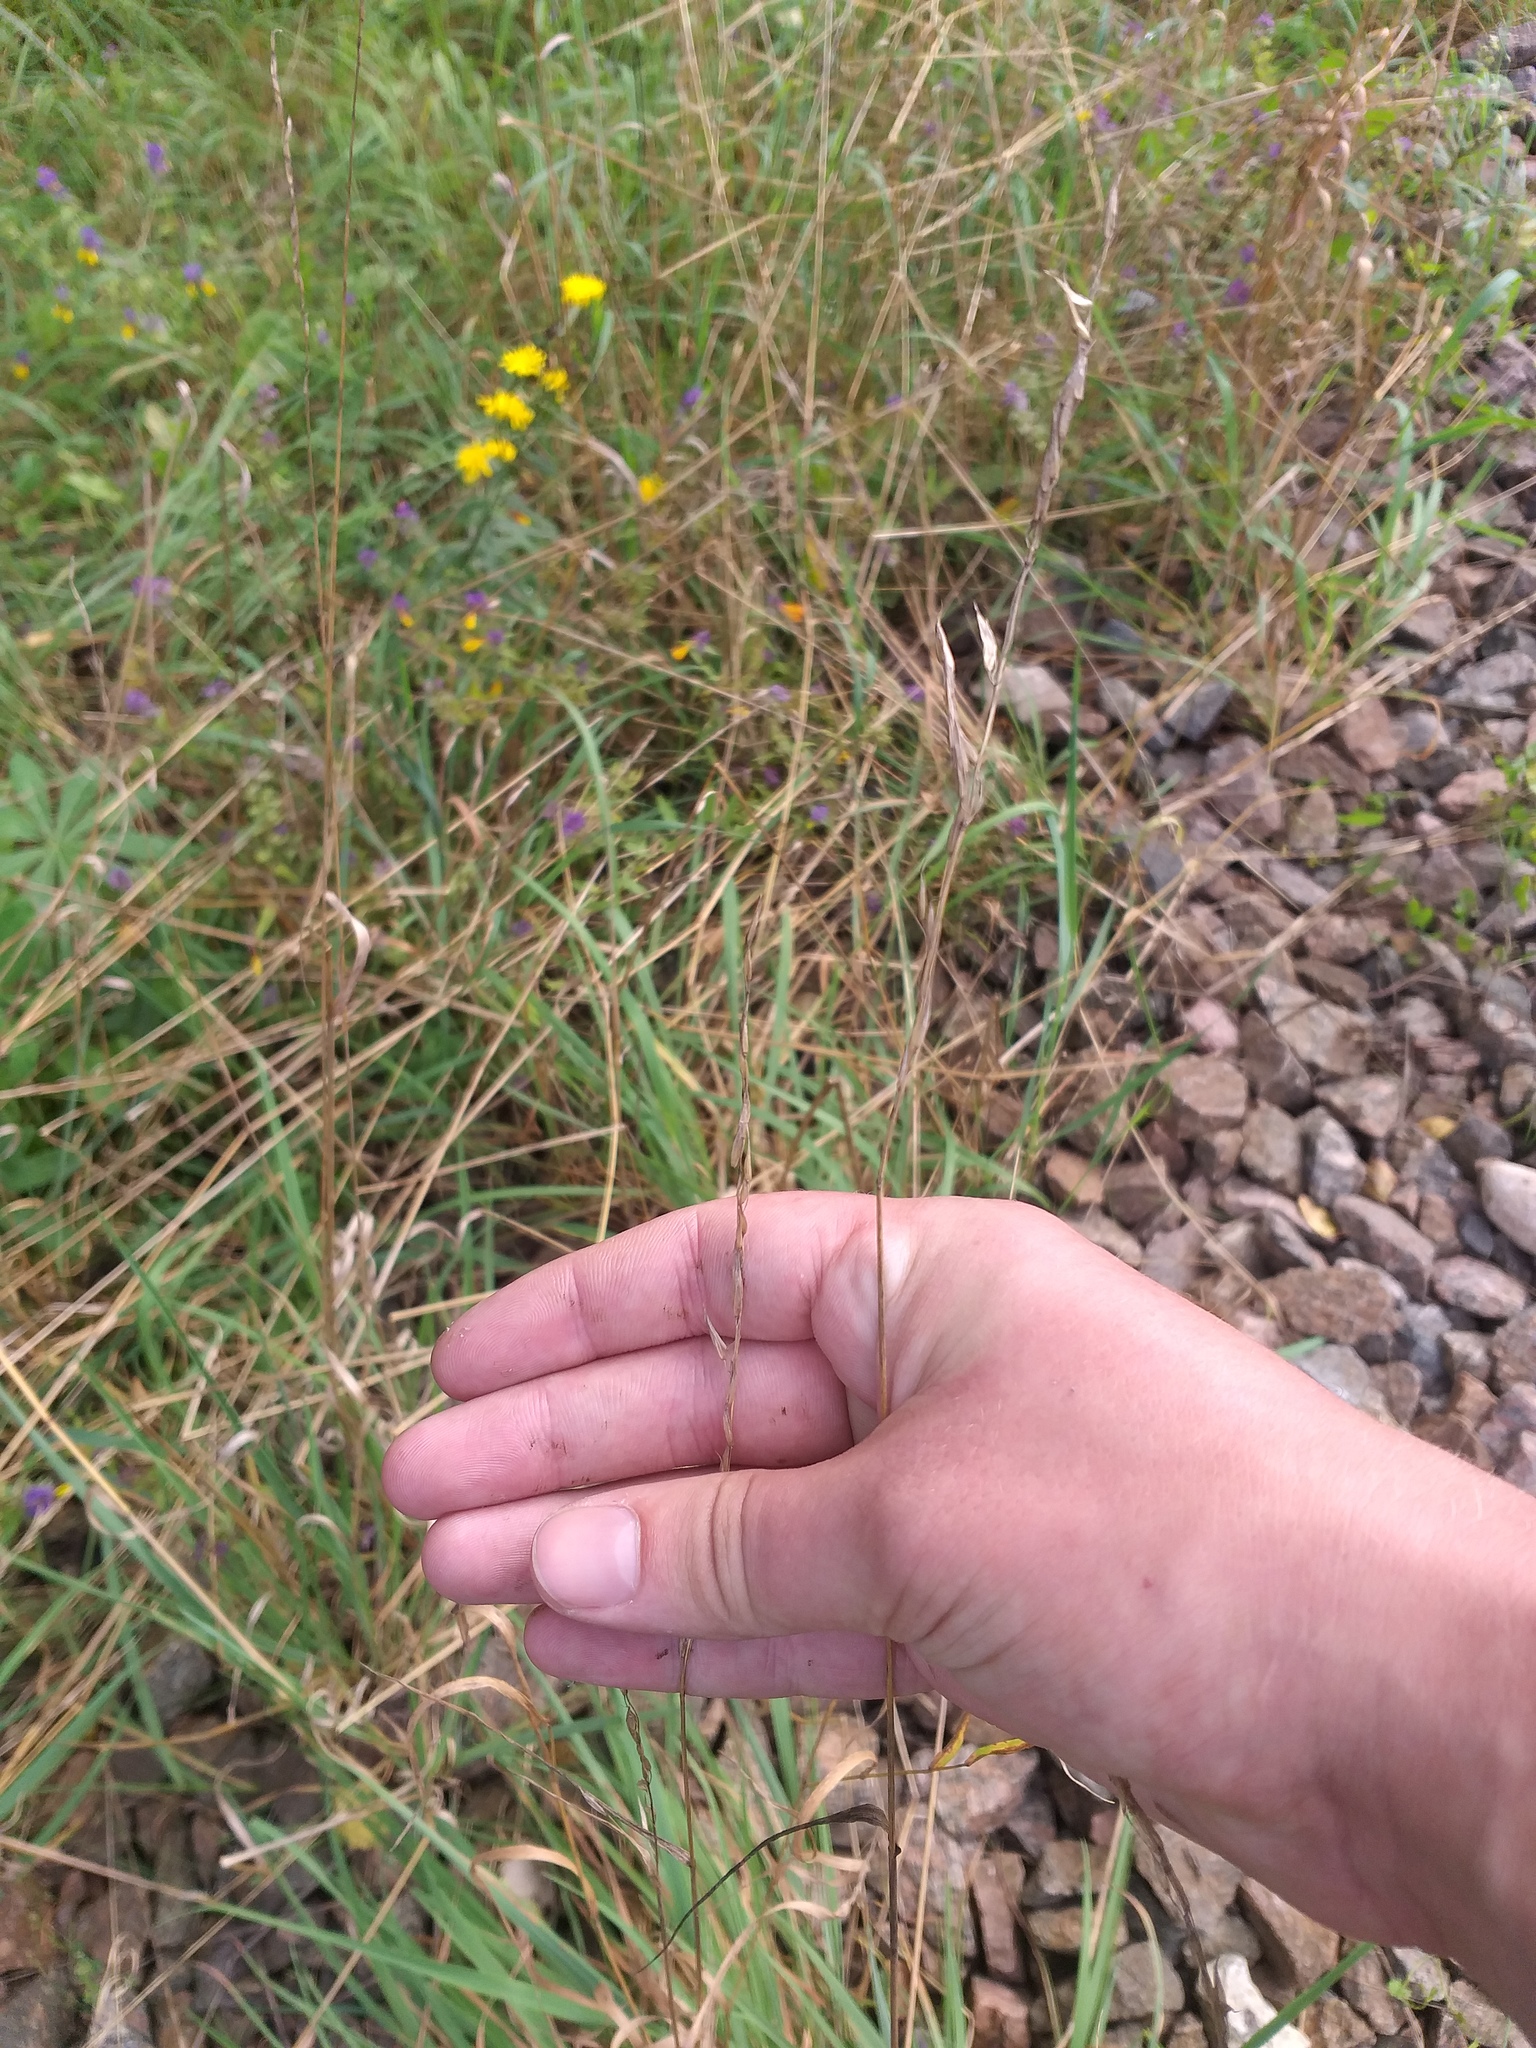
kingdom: Plantae
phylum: Tracheophyta
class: Liliopsida
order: Poales
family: Poaceae
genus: Arrhenatherum
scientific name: Arrhenatherum elatius
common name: Tall oatgrass
